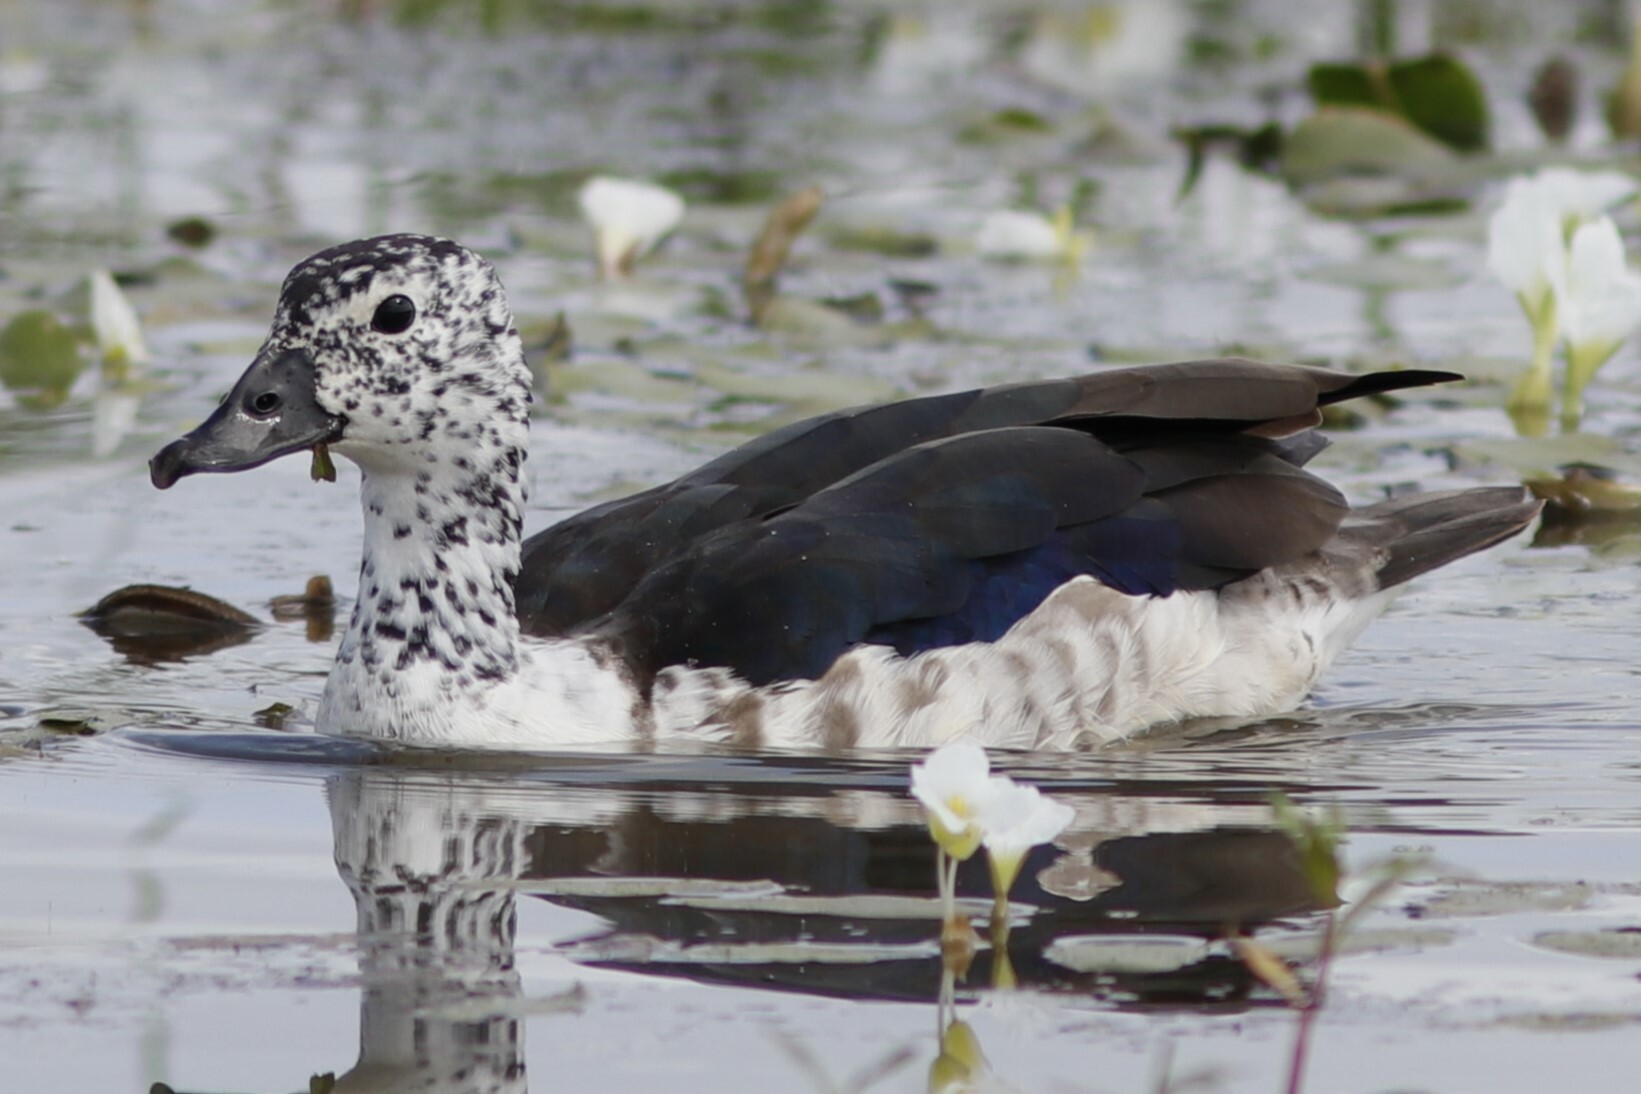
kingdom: Animalia
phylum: Chordata
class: Aves
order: Anseriformes
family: Anatidae
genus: Sarkidiornis
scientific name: Sarkidiornis melanotos
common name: Comb duck
